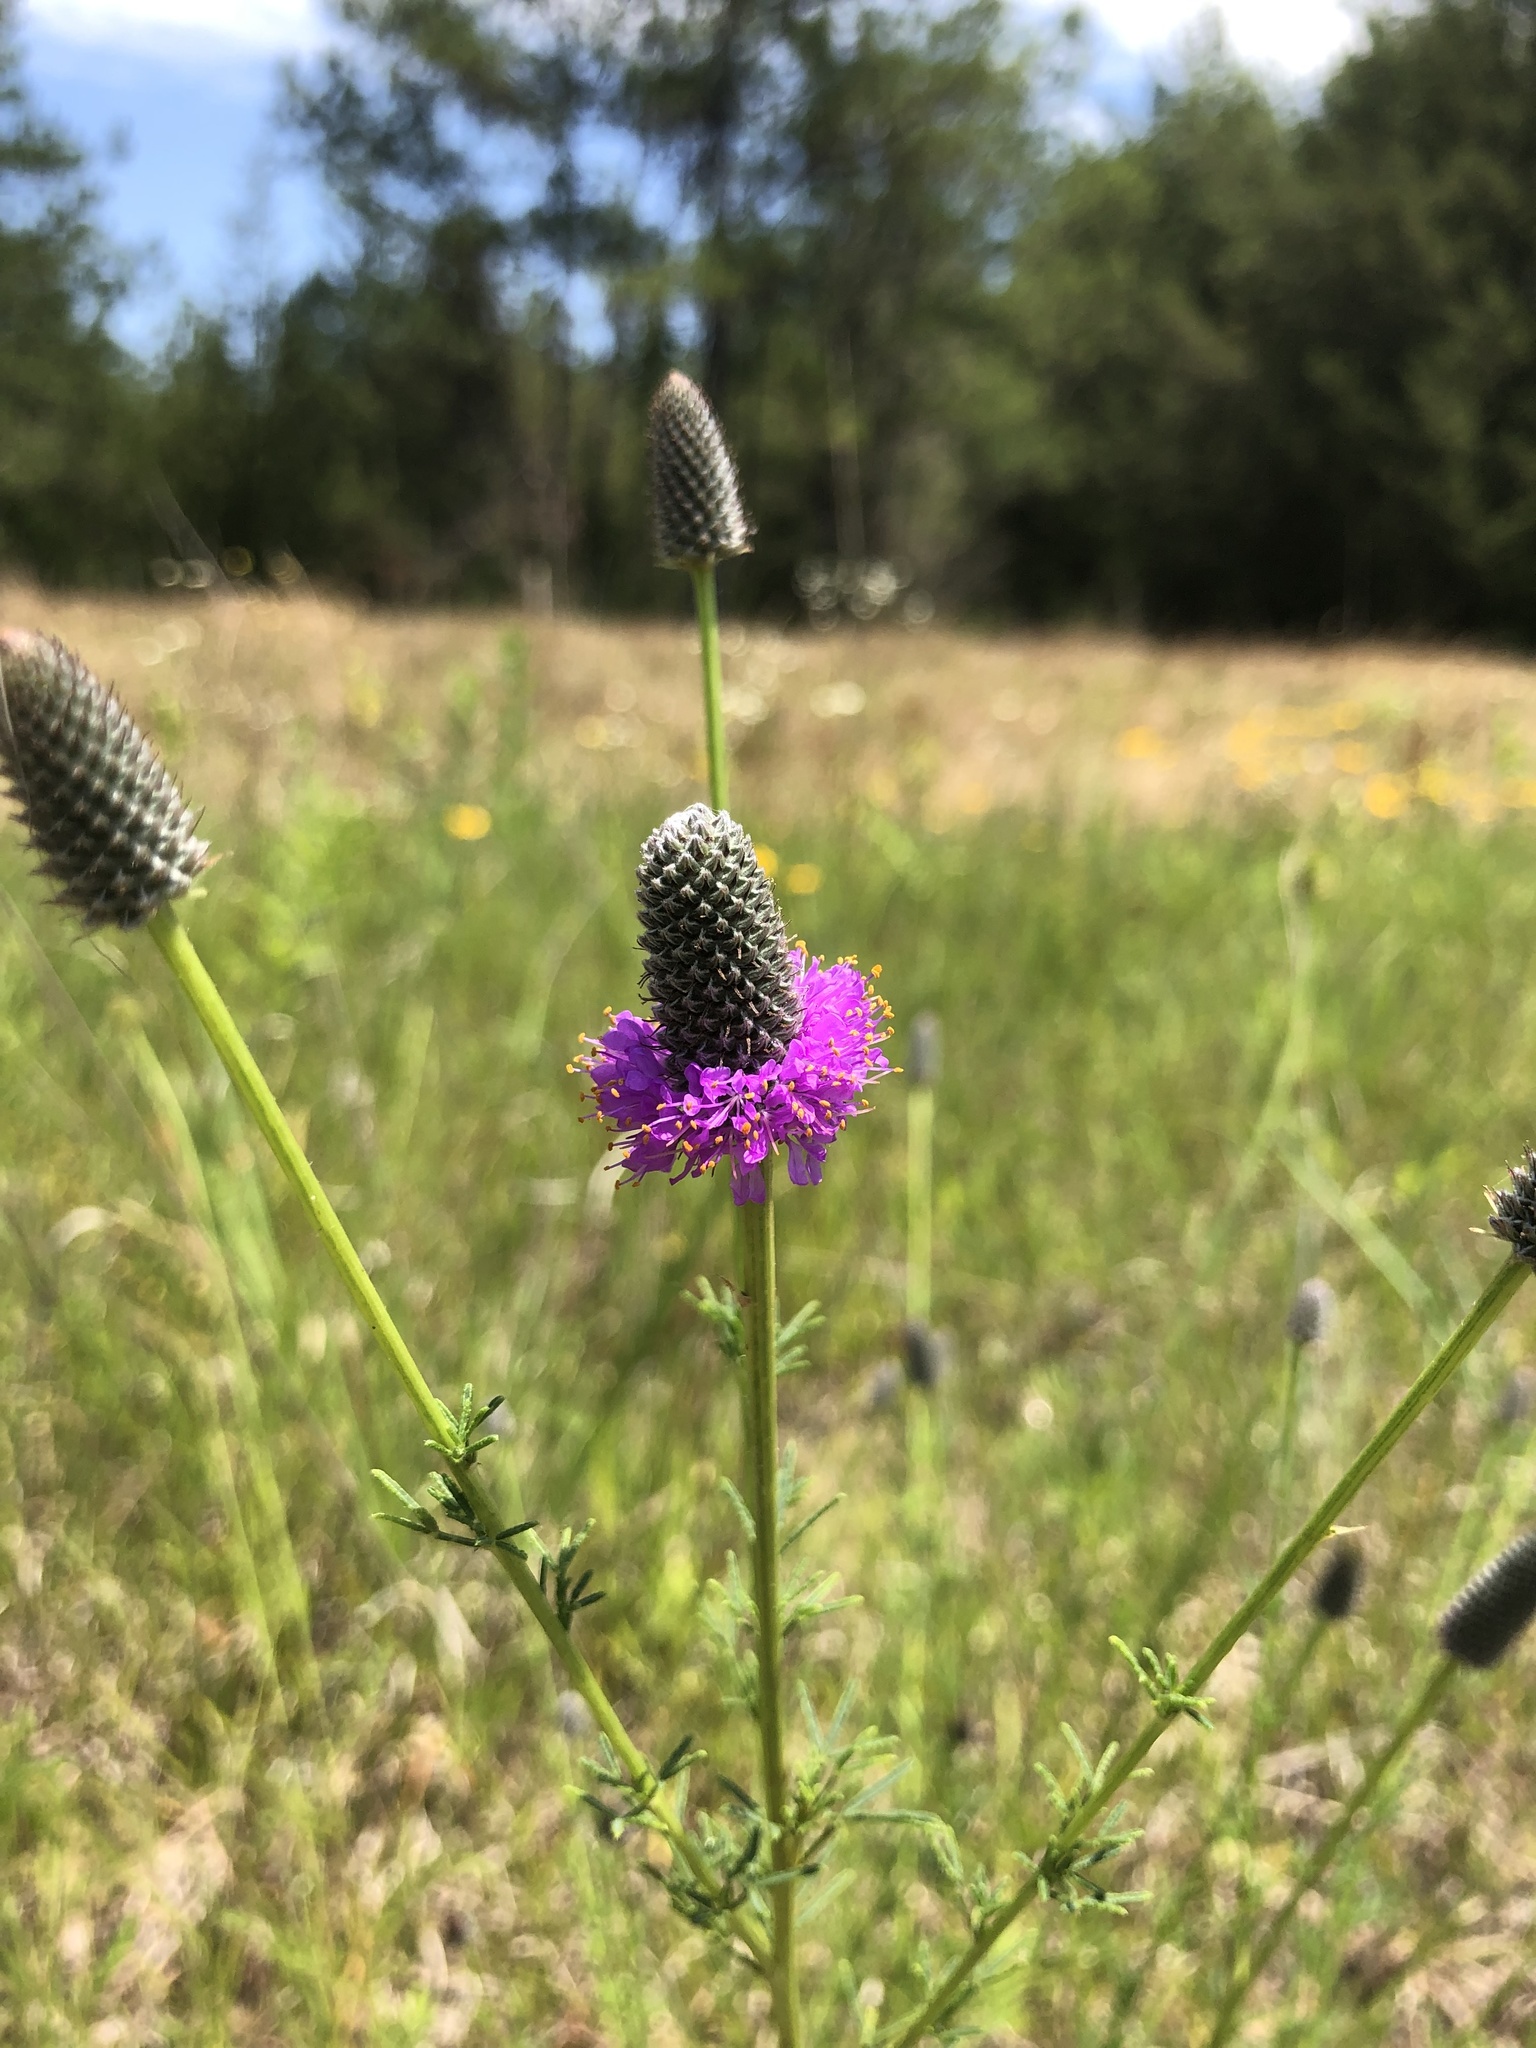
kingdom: Plantae
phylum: Tracheophyta
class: Magnoliopsida
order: Fabales
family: Fabaceae
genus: Dalea
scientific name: Dalea purpurea
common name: Purple prairie-clover
